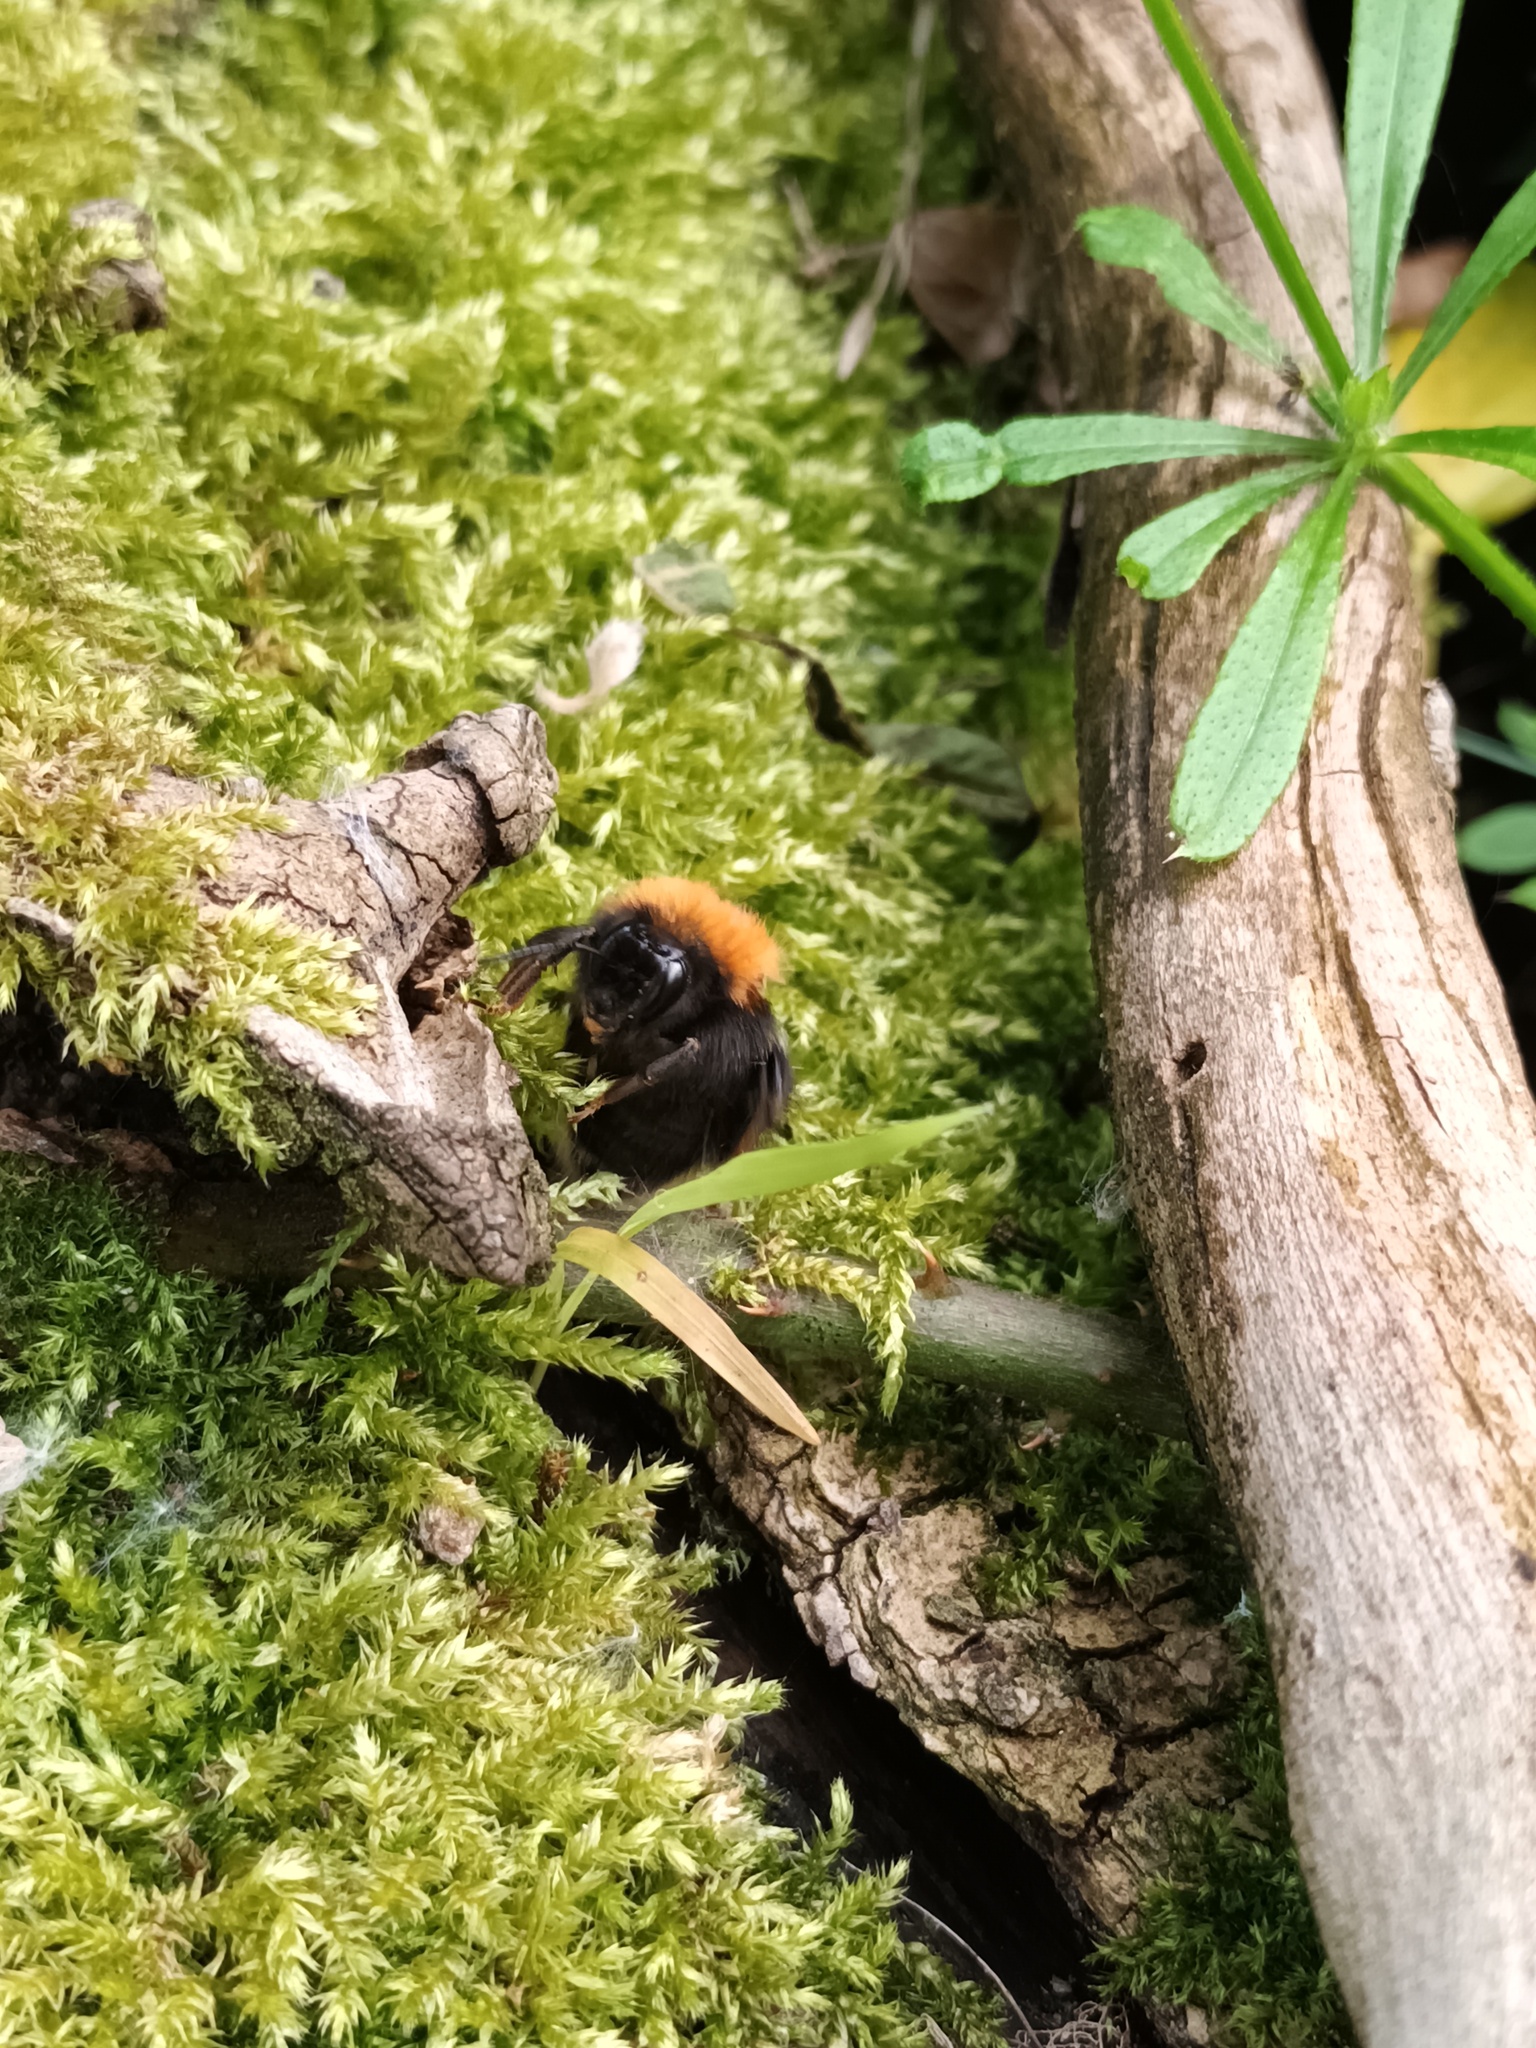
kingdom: Animalia
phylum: Arthropoda
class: Insecta
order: Hymenoptera
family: Apidae
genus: Bombus
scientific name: Bombus hypnorum
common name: New garden bumblebee
